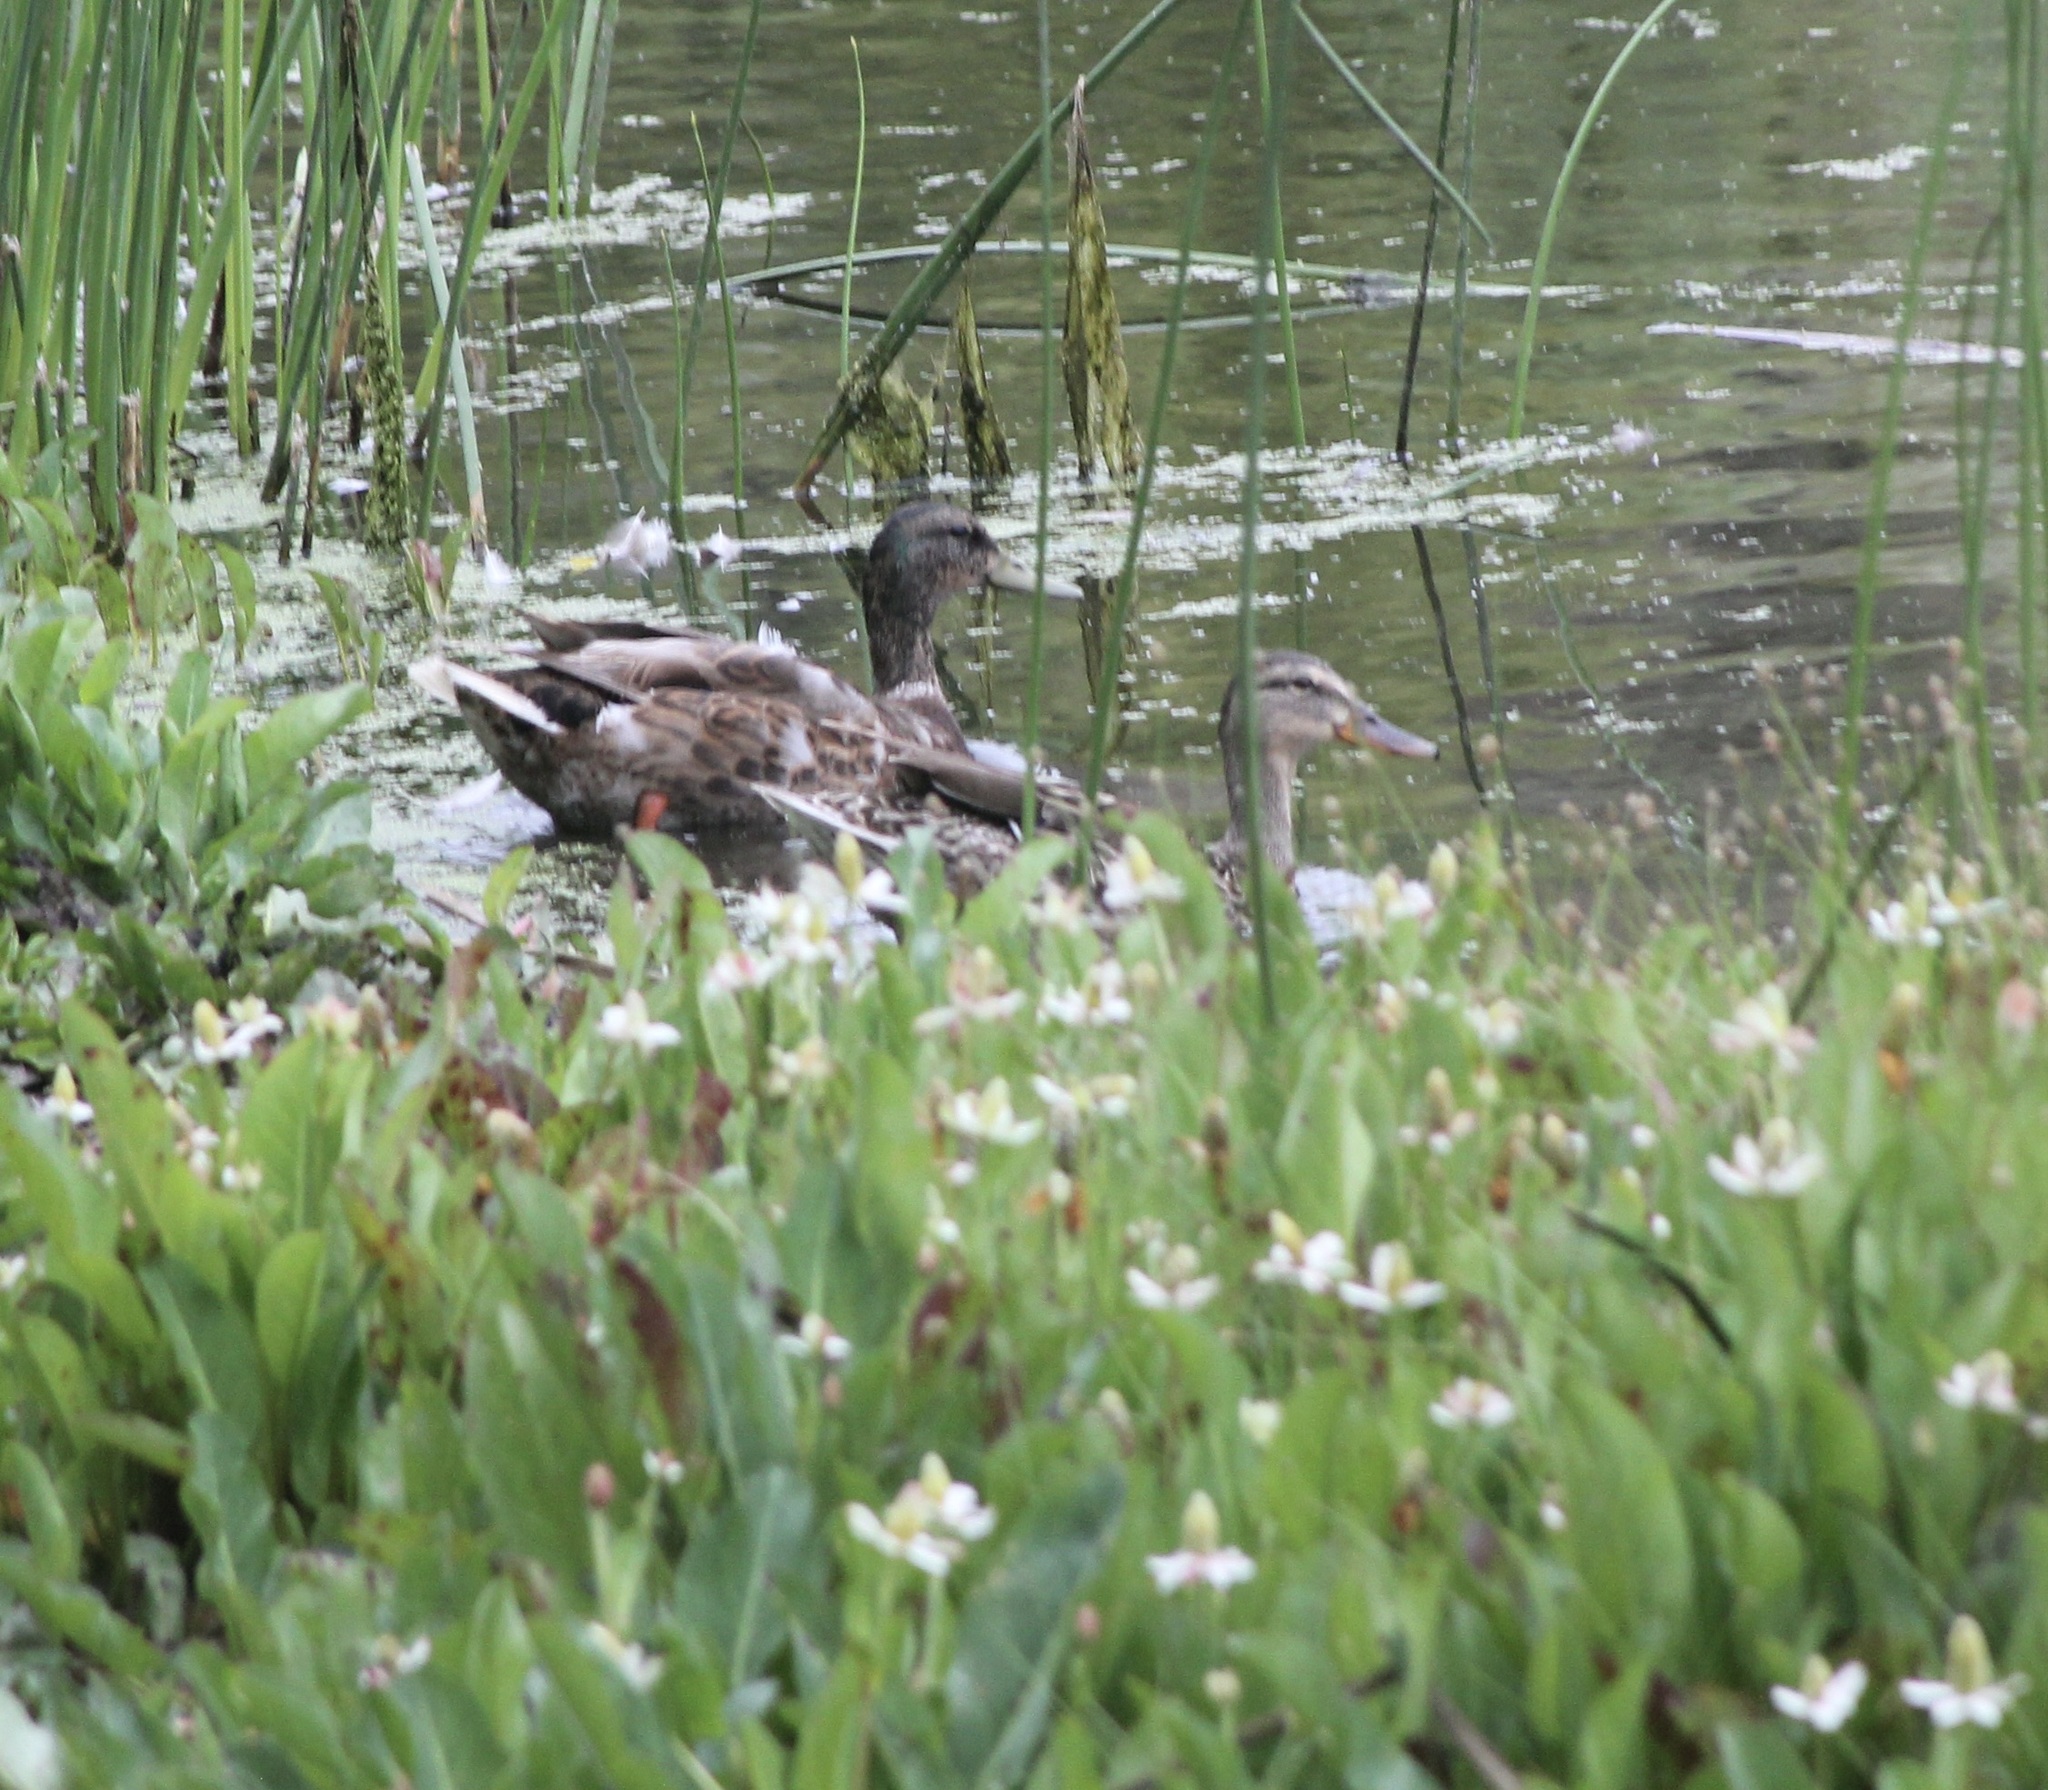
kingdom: Animalia
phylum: Chordata
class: Aves
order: Anseriformes
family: Anatidae
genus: Anas
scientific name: Anas platyrhynchos
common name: Mallard
